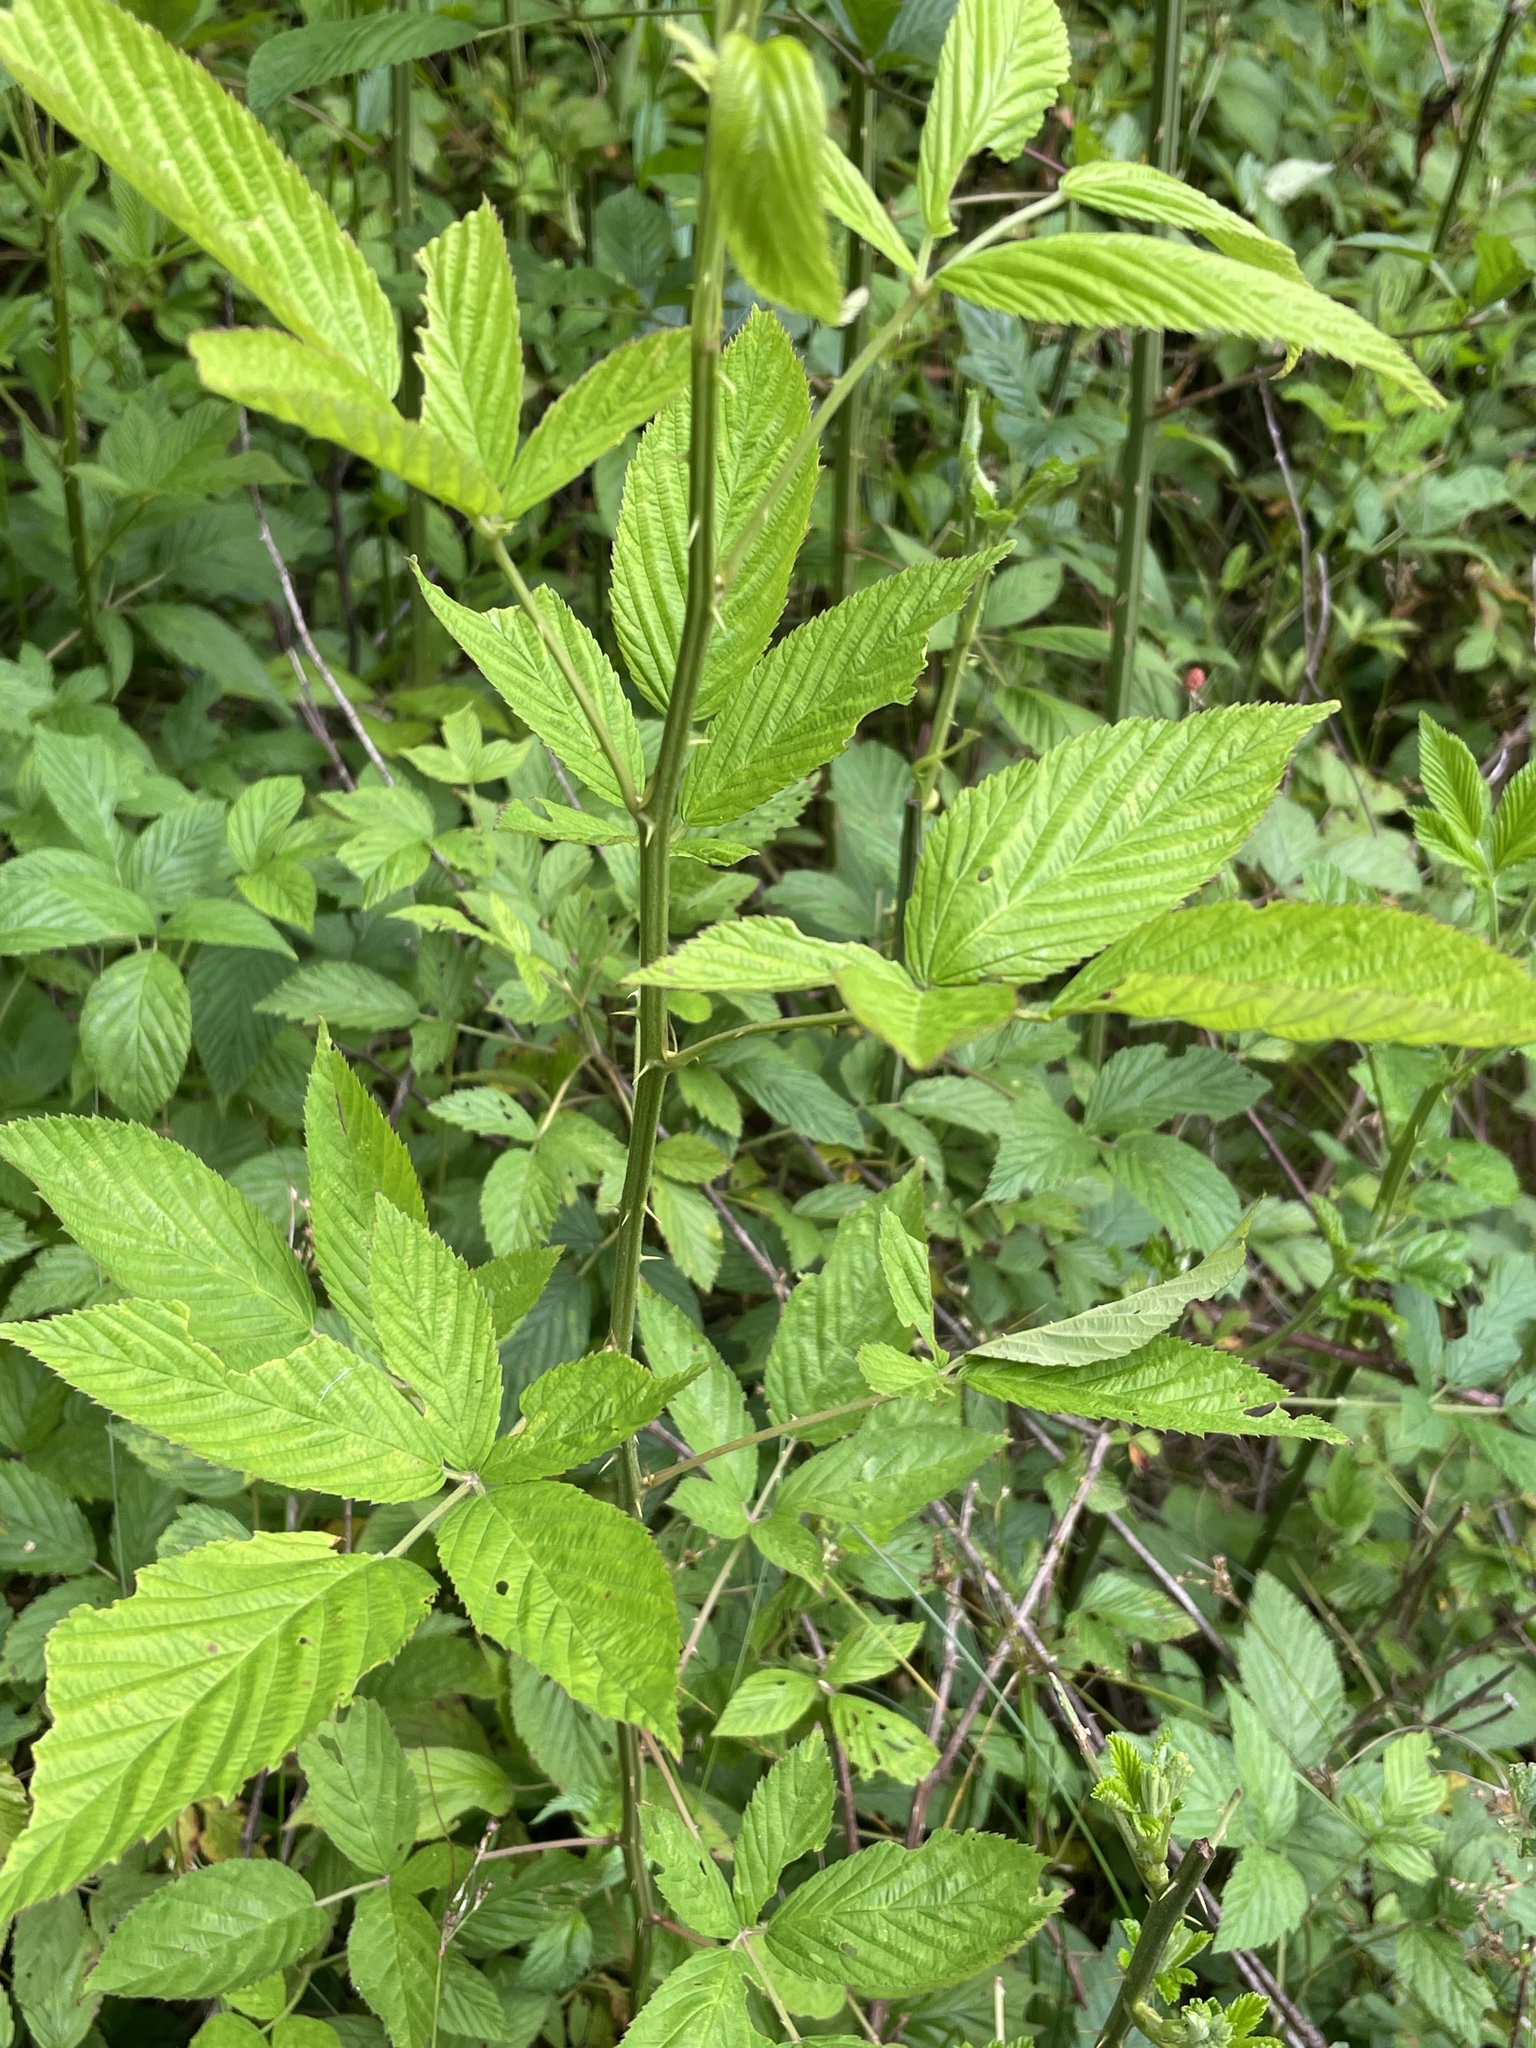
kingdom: Plantae
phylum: Tracheophyta
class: Magnoliopsida
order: Rosales
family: Rosaceae
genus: Rubus
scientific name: Rubus pensilvanicus
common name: Pennsylvania blackberry
